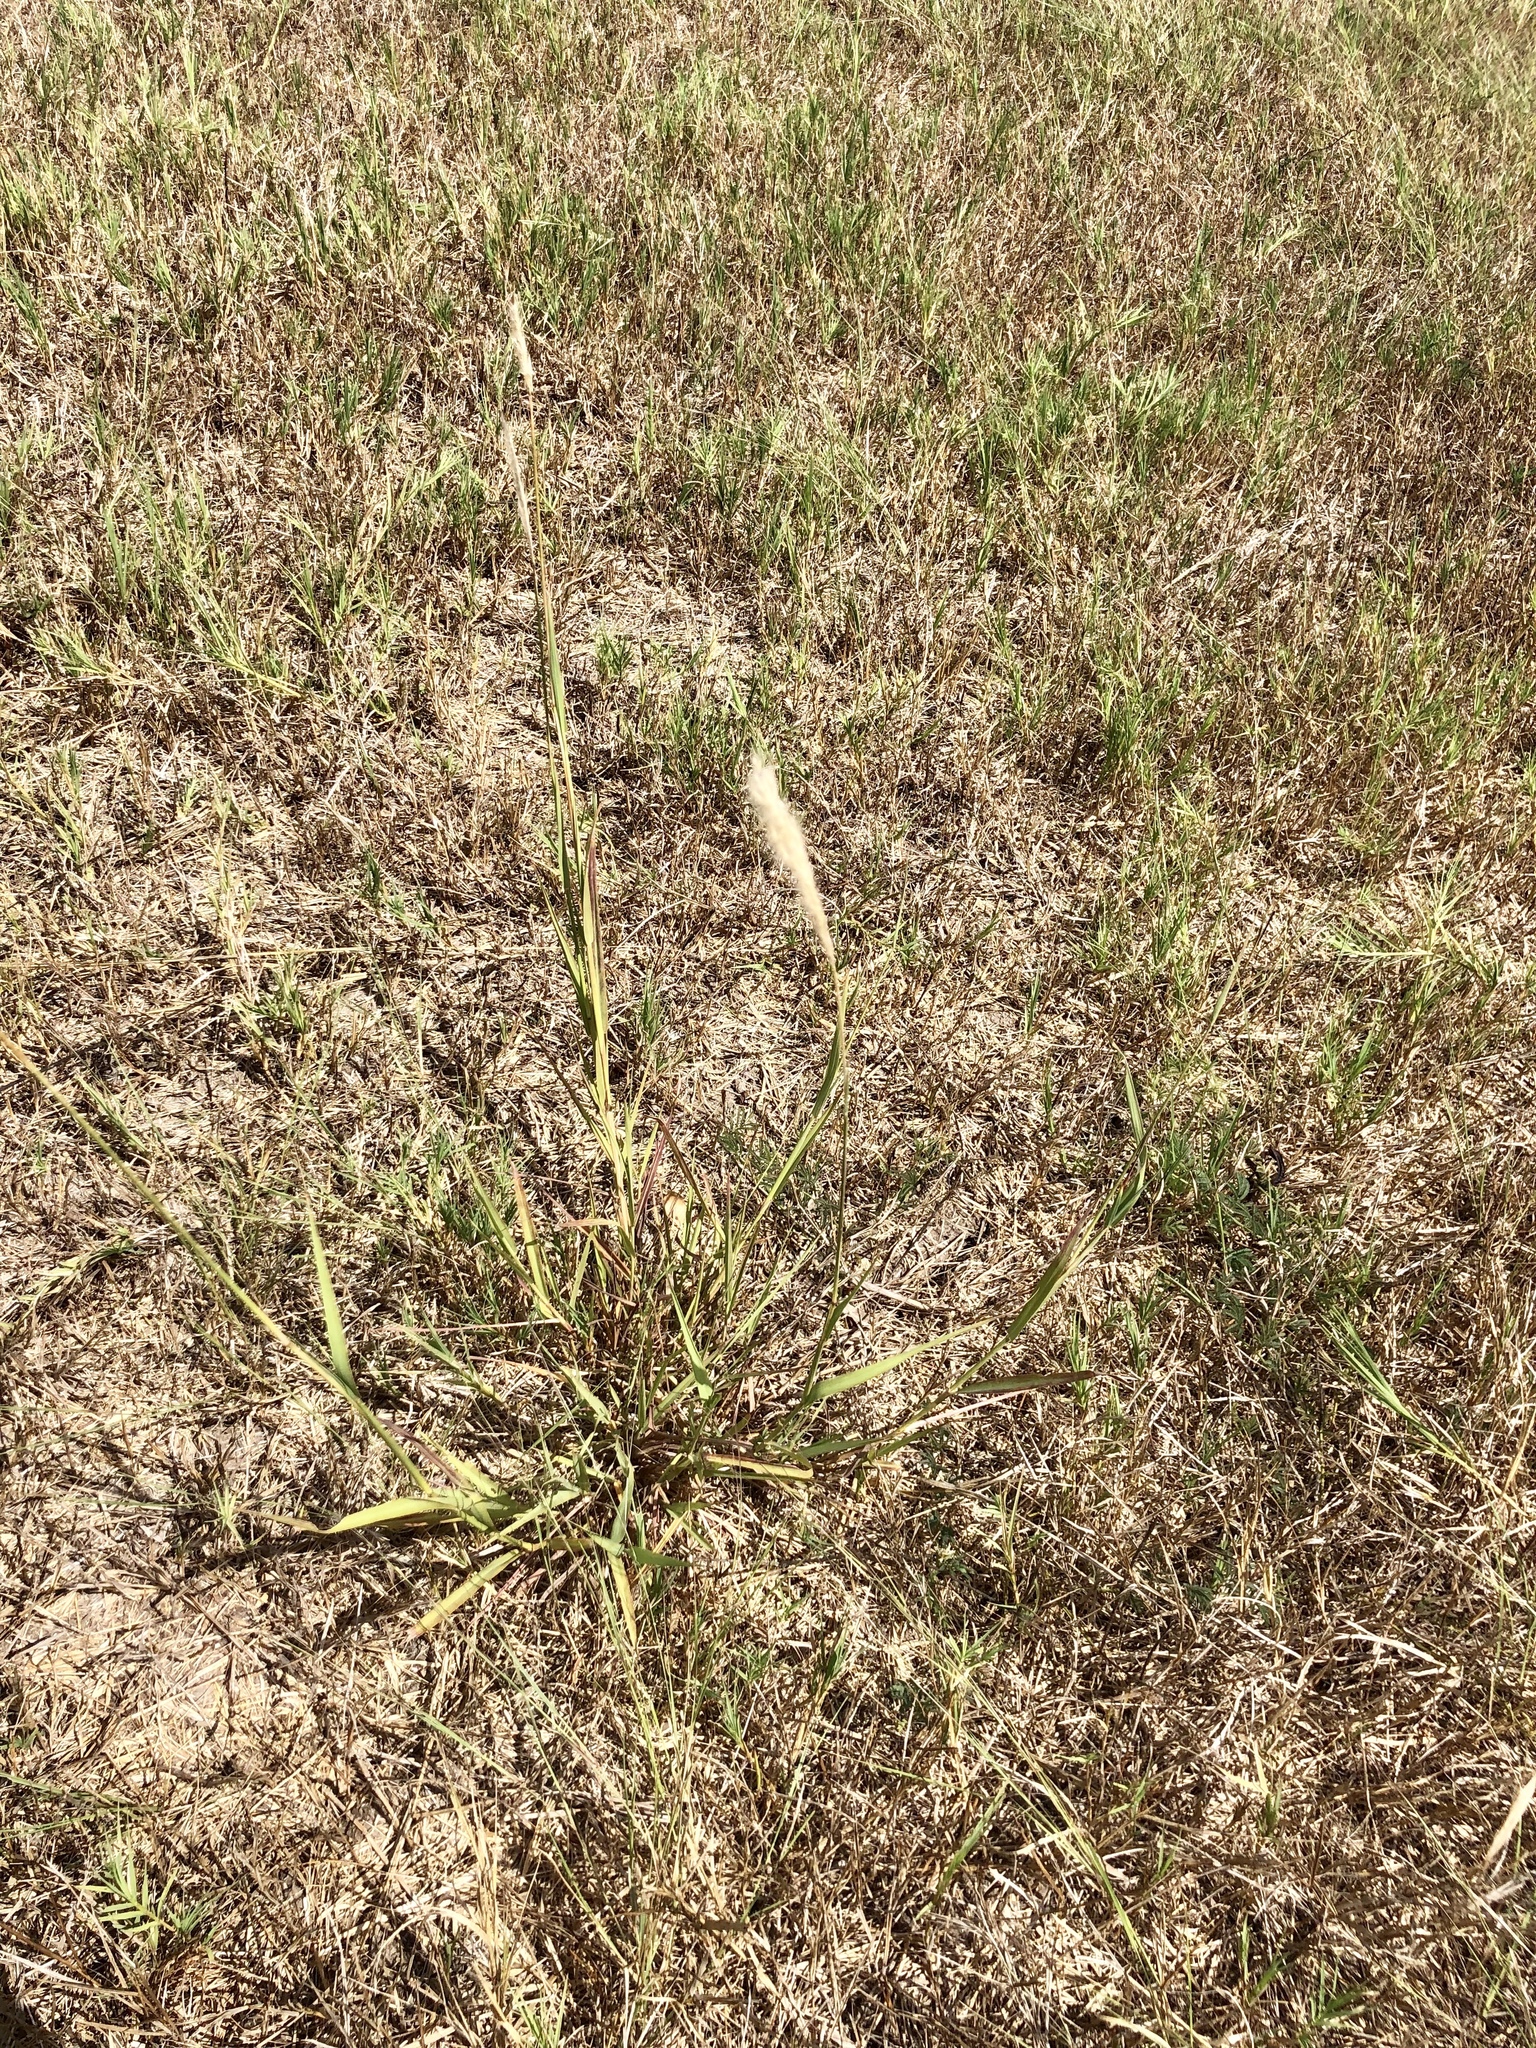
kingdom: Plantae
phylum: Tracheophyta
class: Liliopsida
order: Poales
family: Poaceae
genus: Bothriochloa
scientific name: Bothriochloa torreyana
